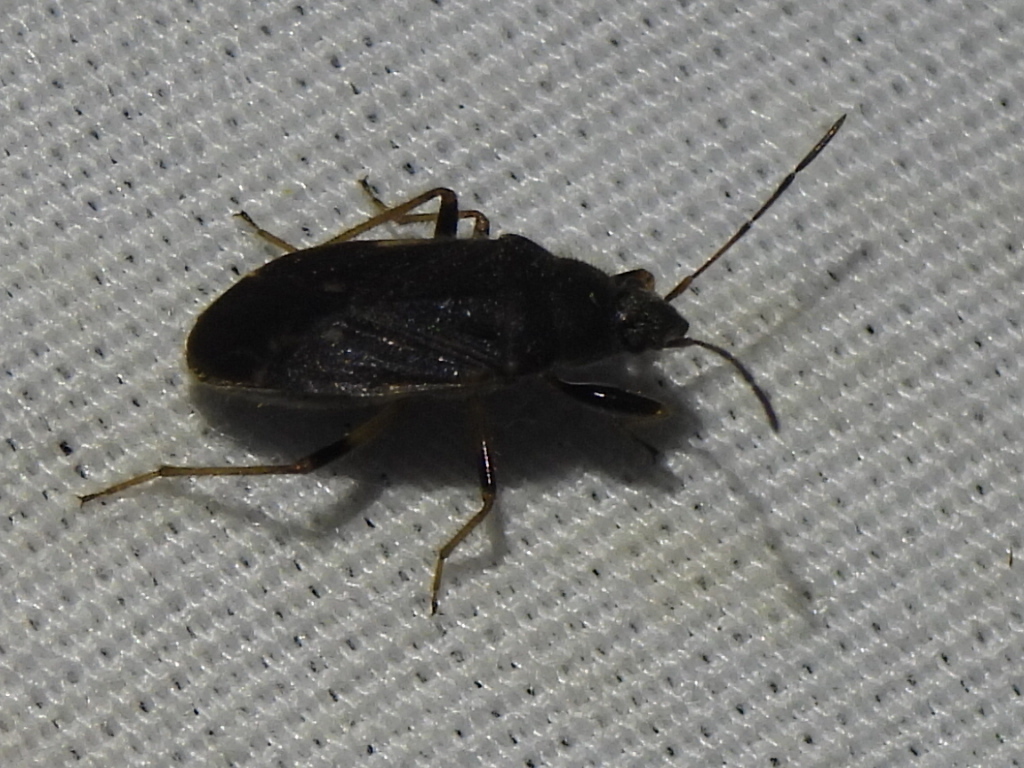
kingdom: Animalia
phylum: Arthropoda
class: Insecta
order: Hemiptera
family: Rhyparochromidae
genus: Perigenes
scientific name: Perigenes similis
